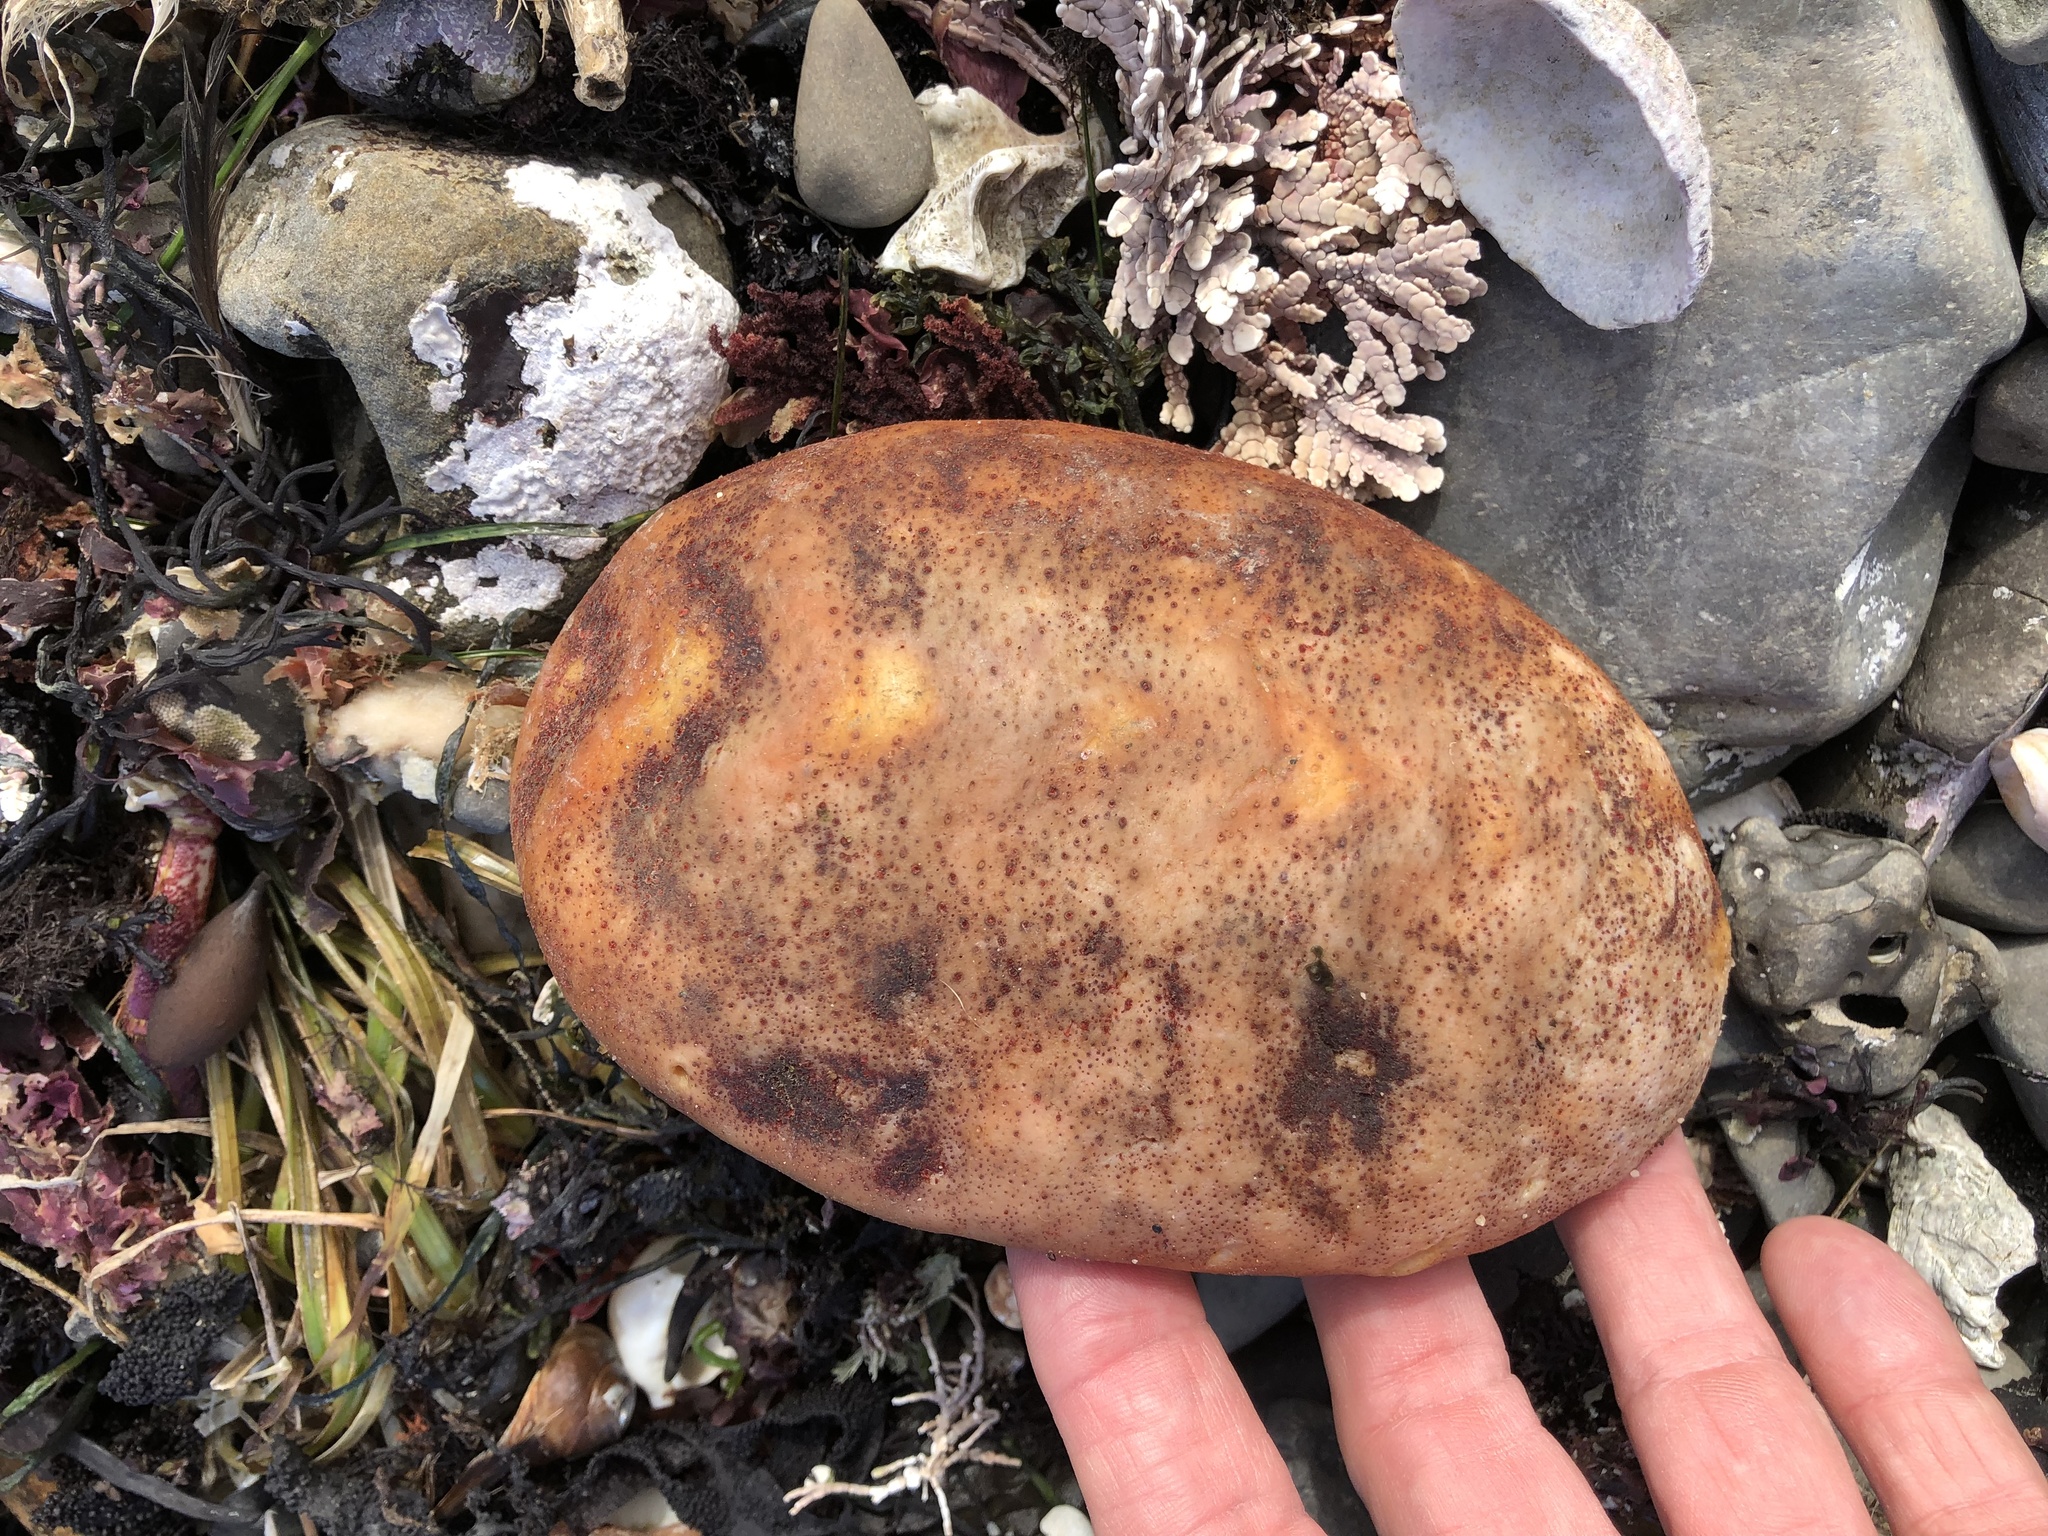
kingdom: Animalia
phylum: Mollusca
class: Polyplacophora
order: Chitonida
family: Acanthochitonidae
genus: Cryptochiton
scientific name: Cryptochiton stelleri
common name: Giant pacific chiton
